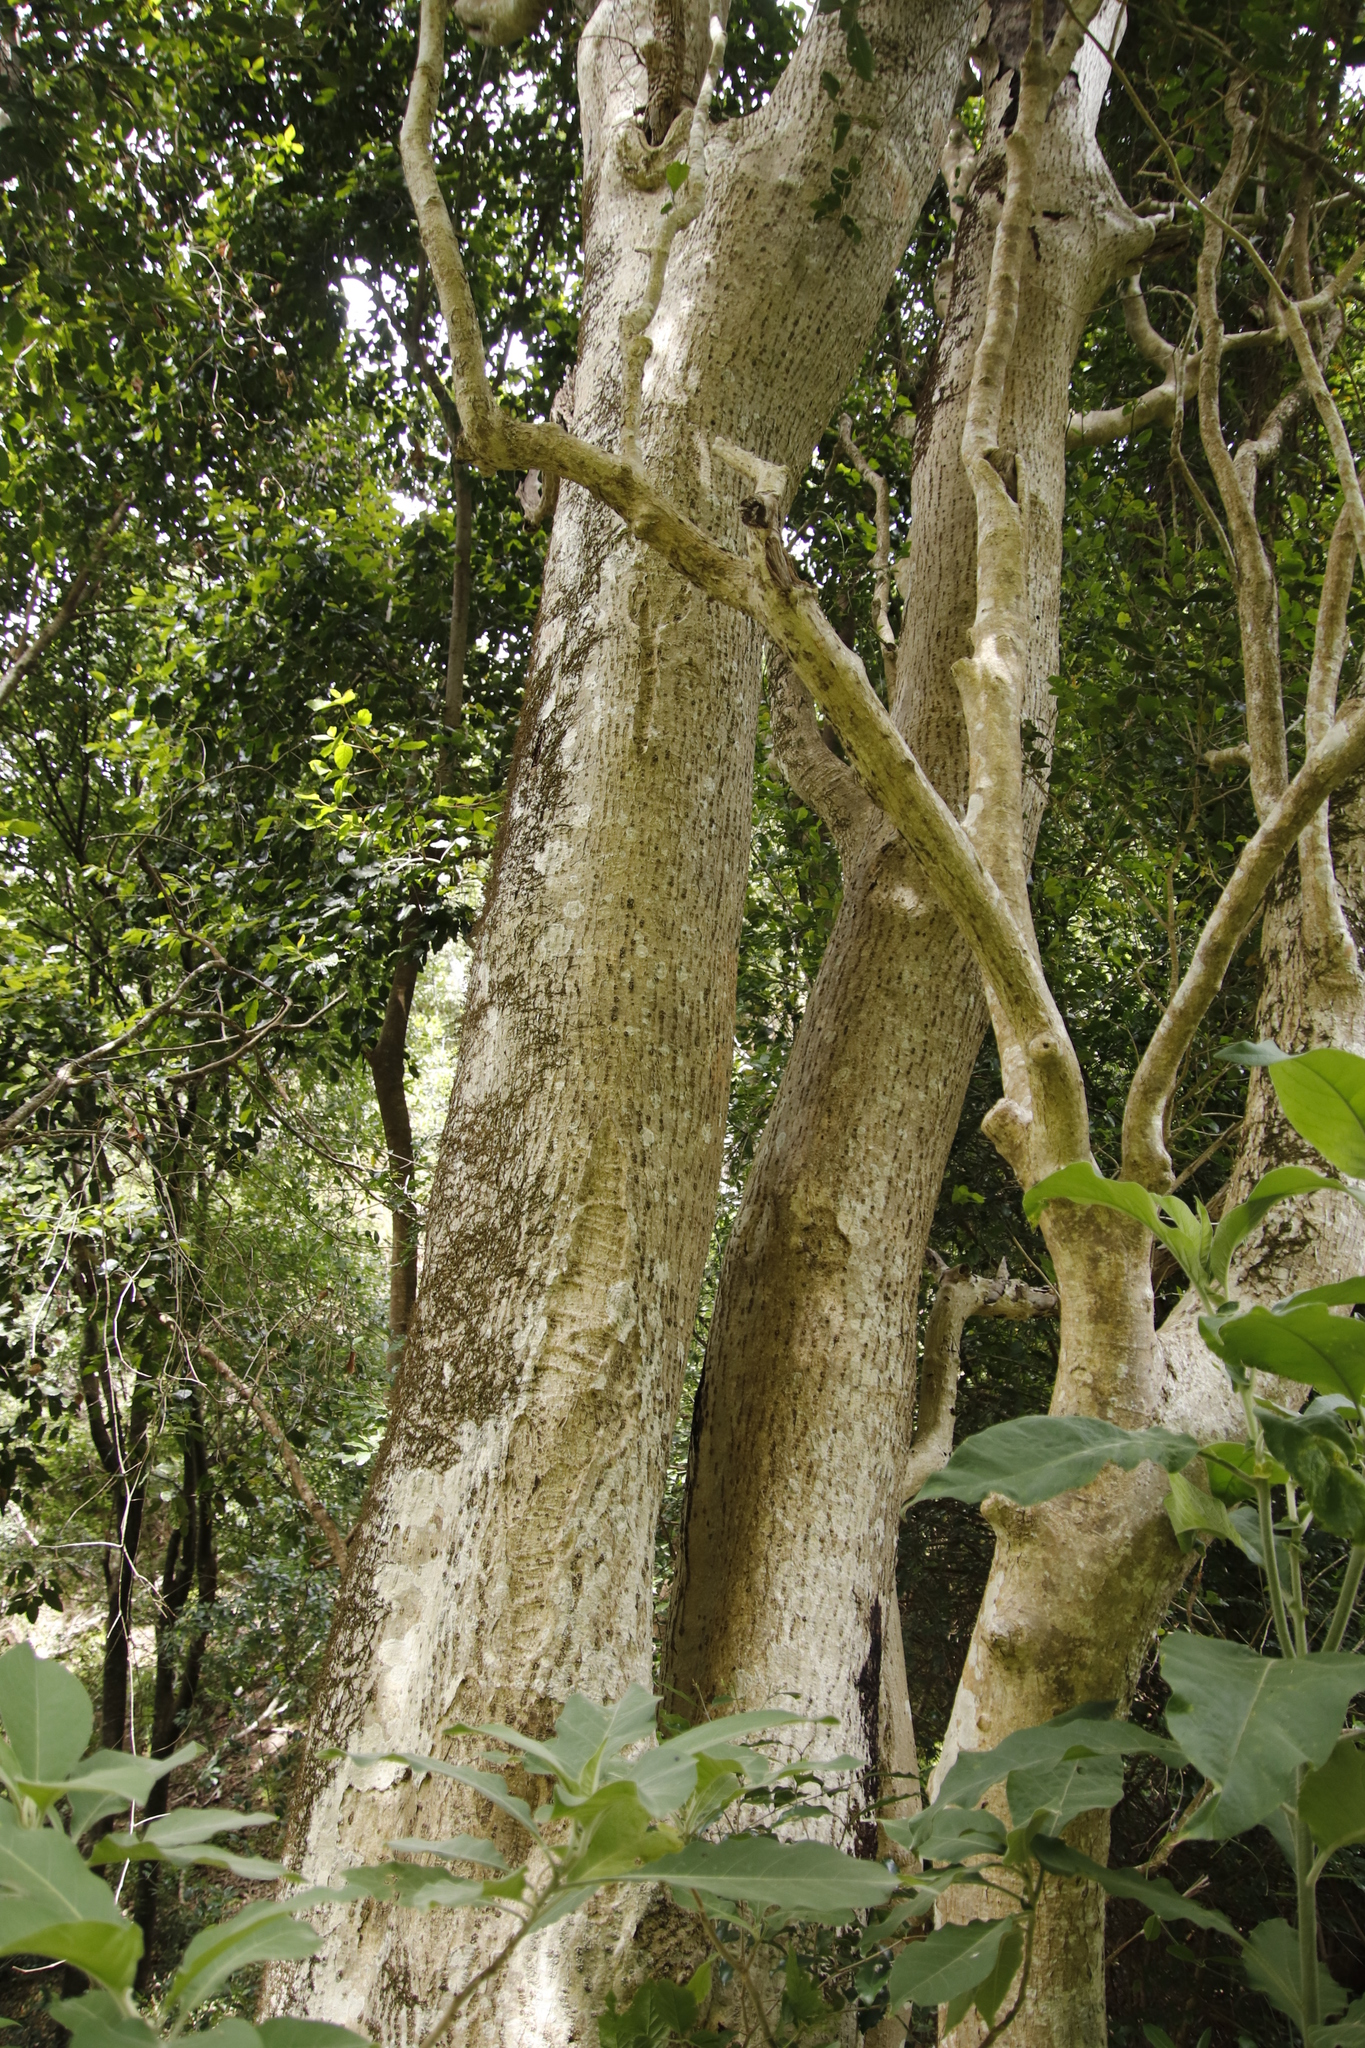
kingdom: Plantae
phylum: Tracheophyta
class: Magnoliopsida
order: Lamiales
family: Oleaceae
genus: Olea
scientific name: Olea capensis
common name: Black ironwood
